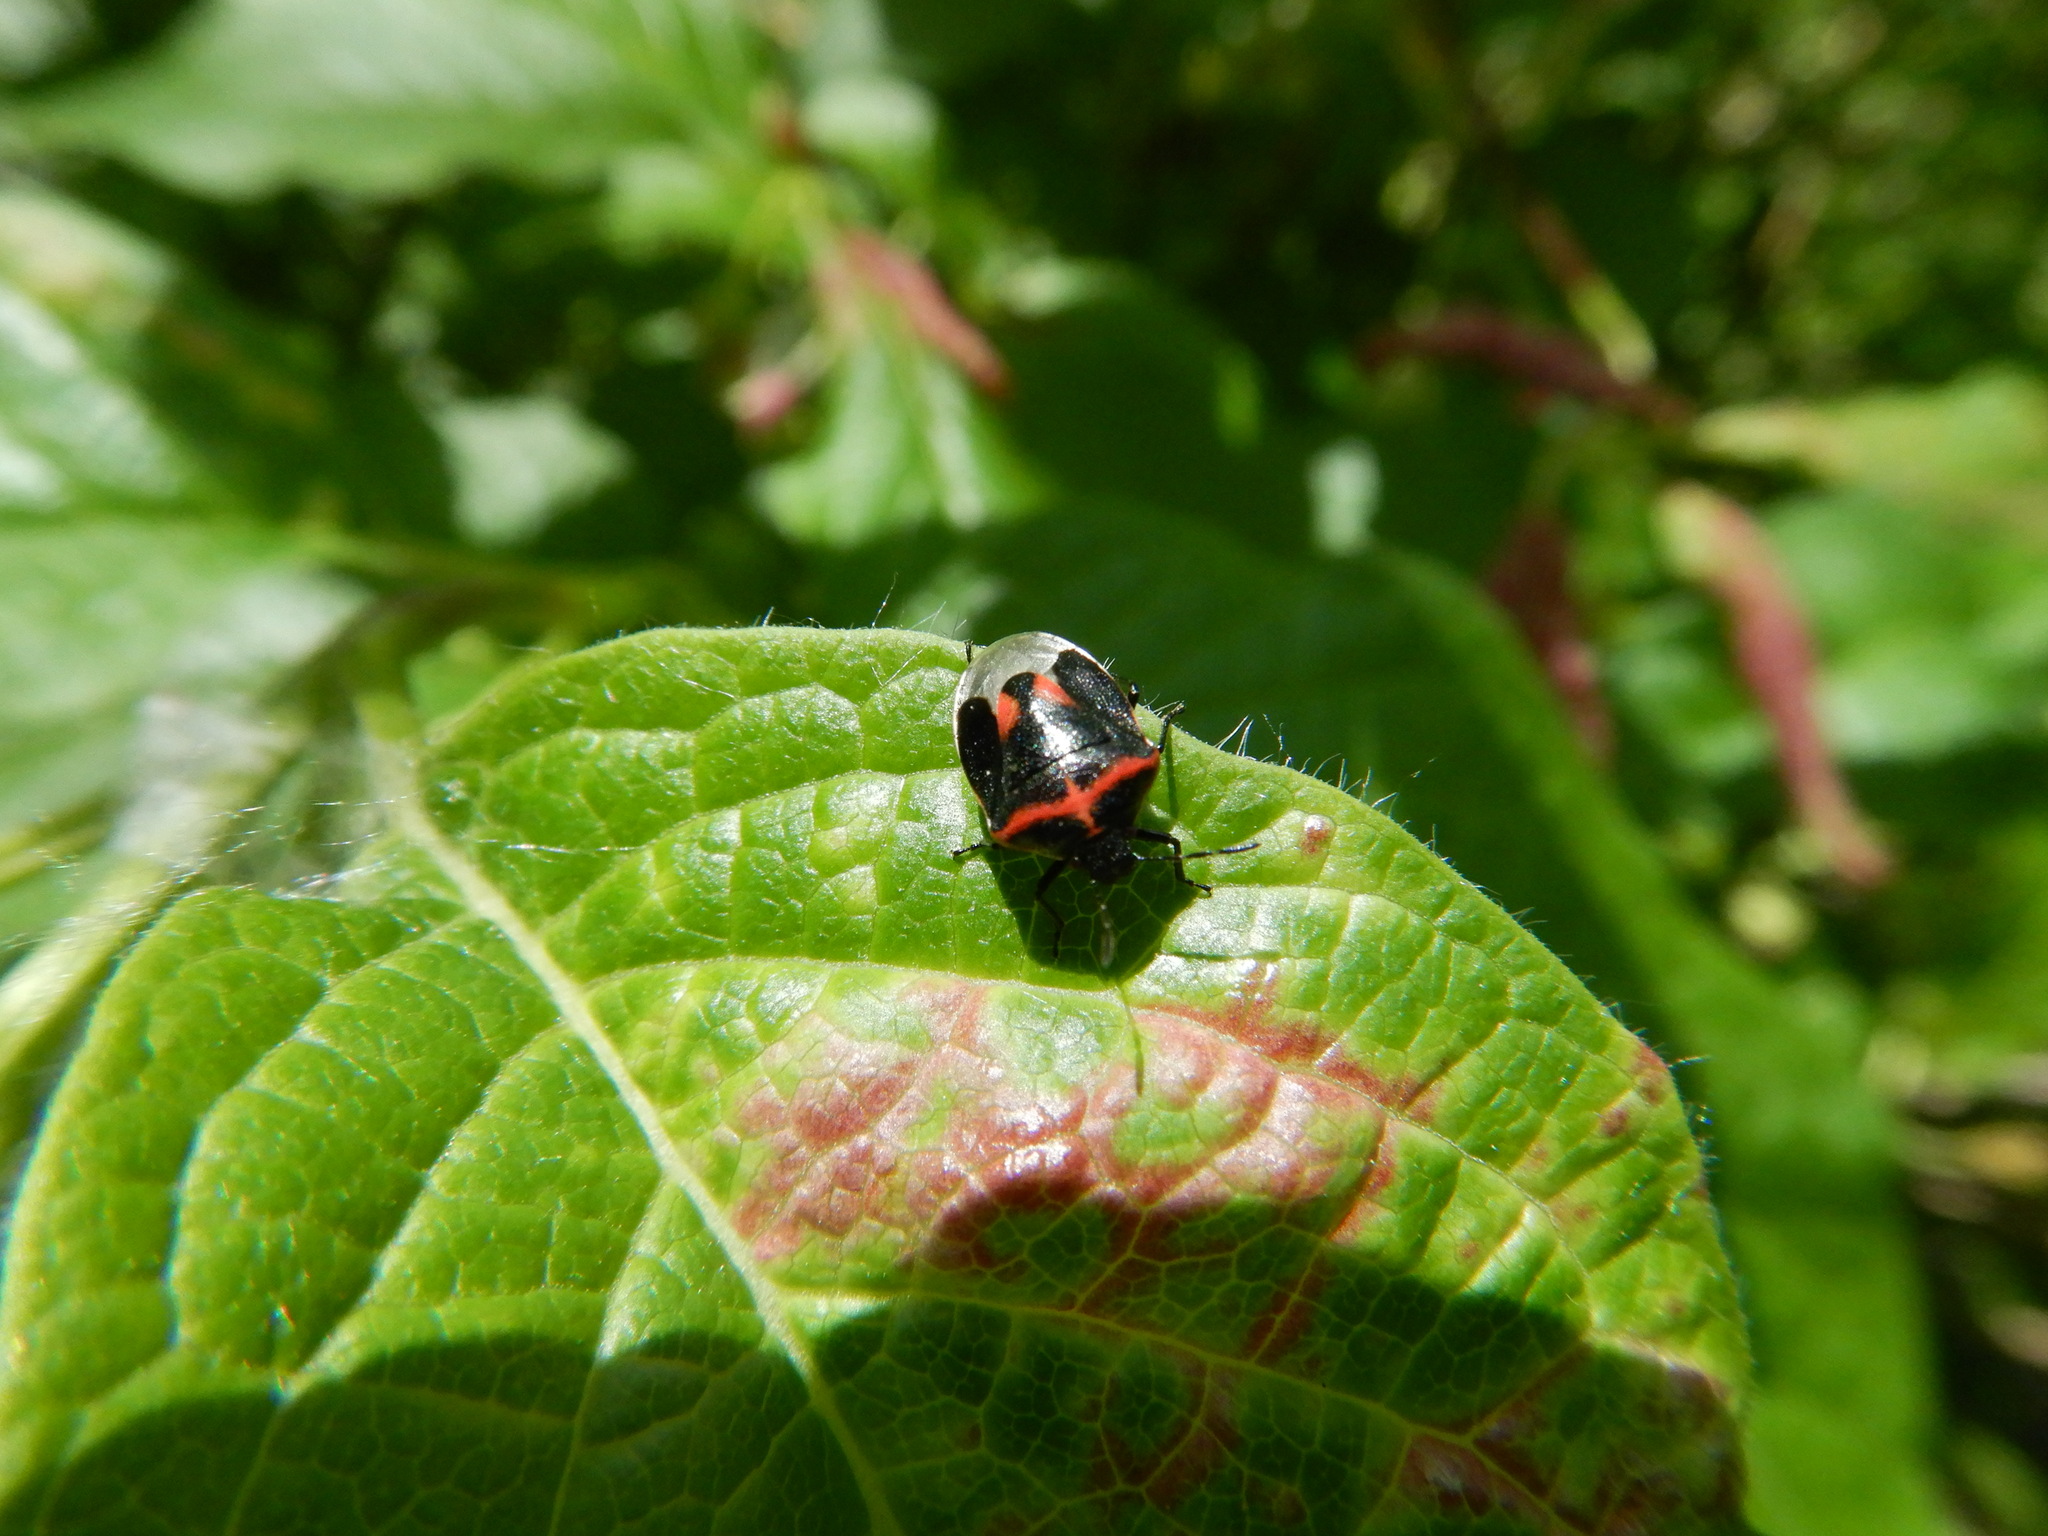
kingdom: Animalia
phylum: Arthropoda
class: Insecta
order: Hemiptera
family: Pentatomidae
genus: Cosmopepla
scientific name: Cosmopepla lintneriana
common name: Twice-stabbed stink bug
